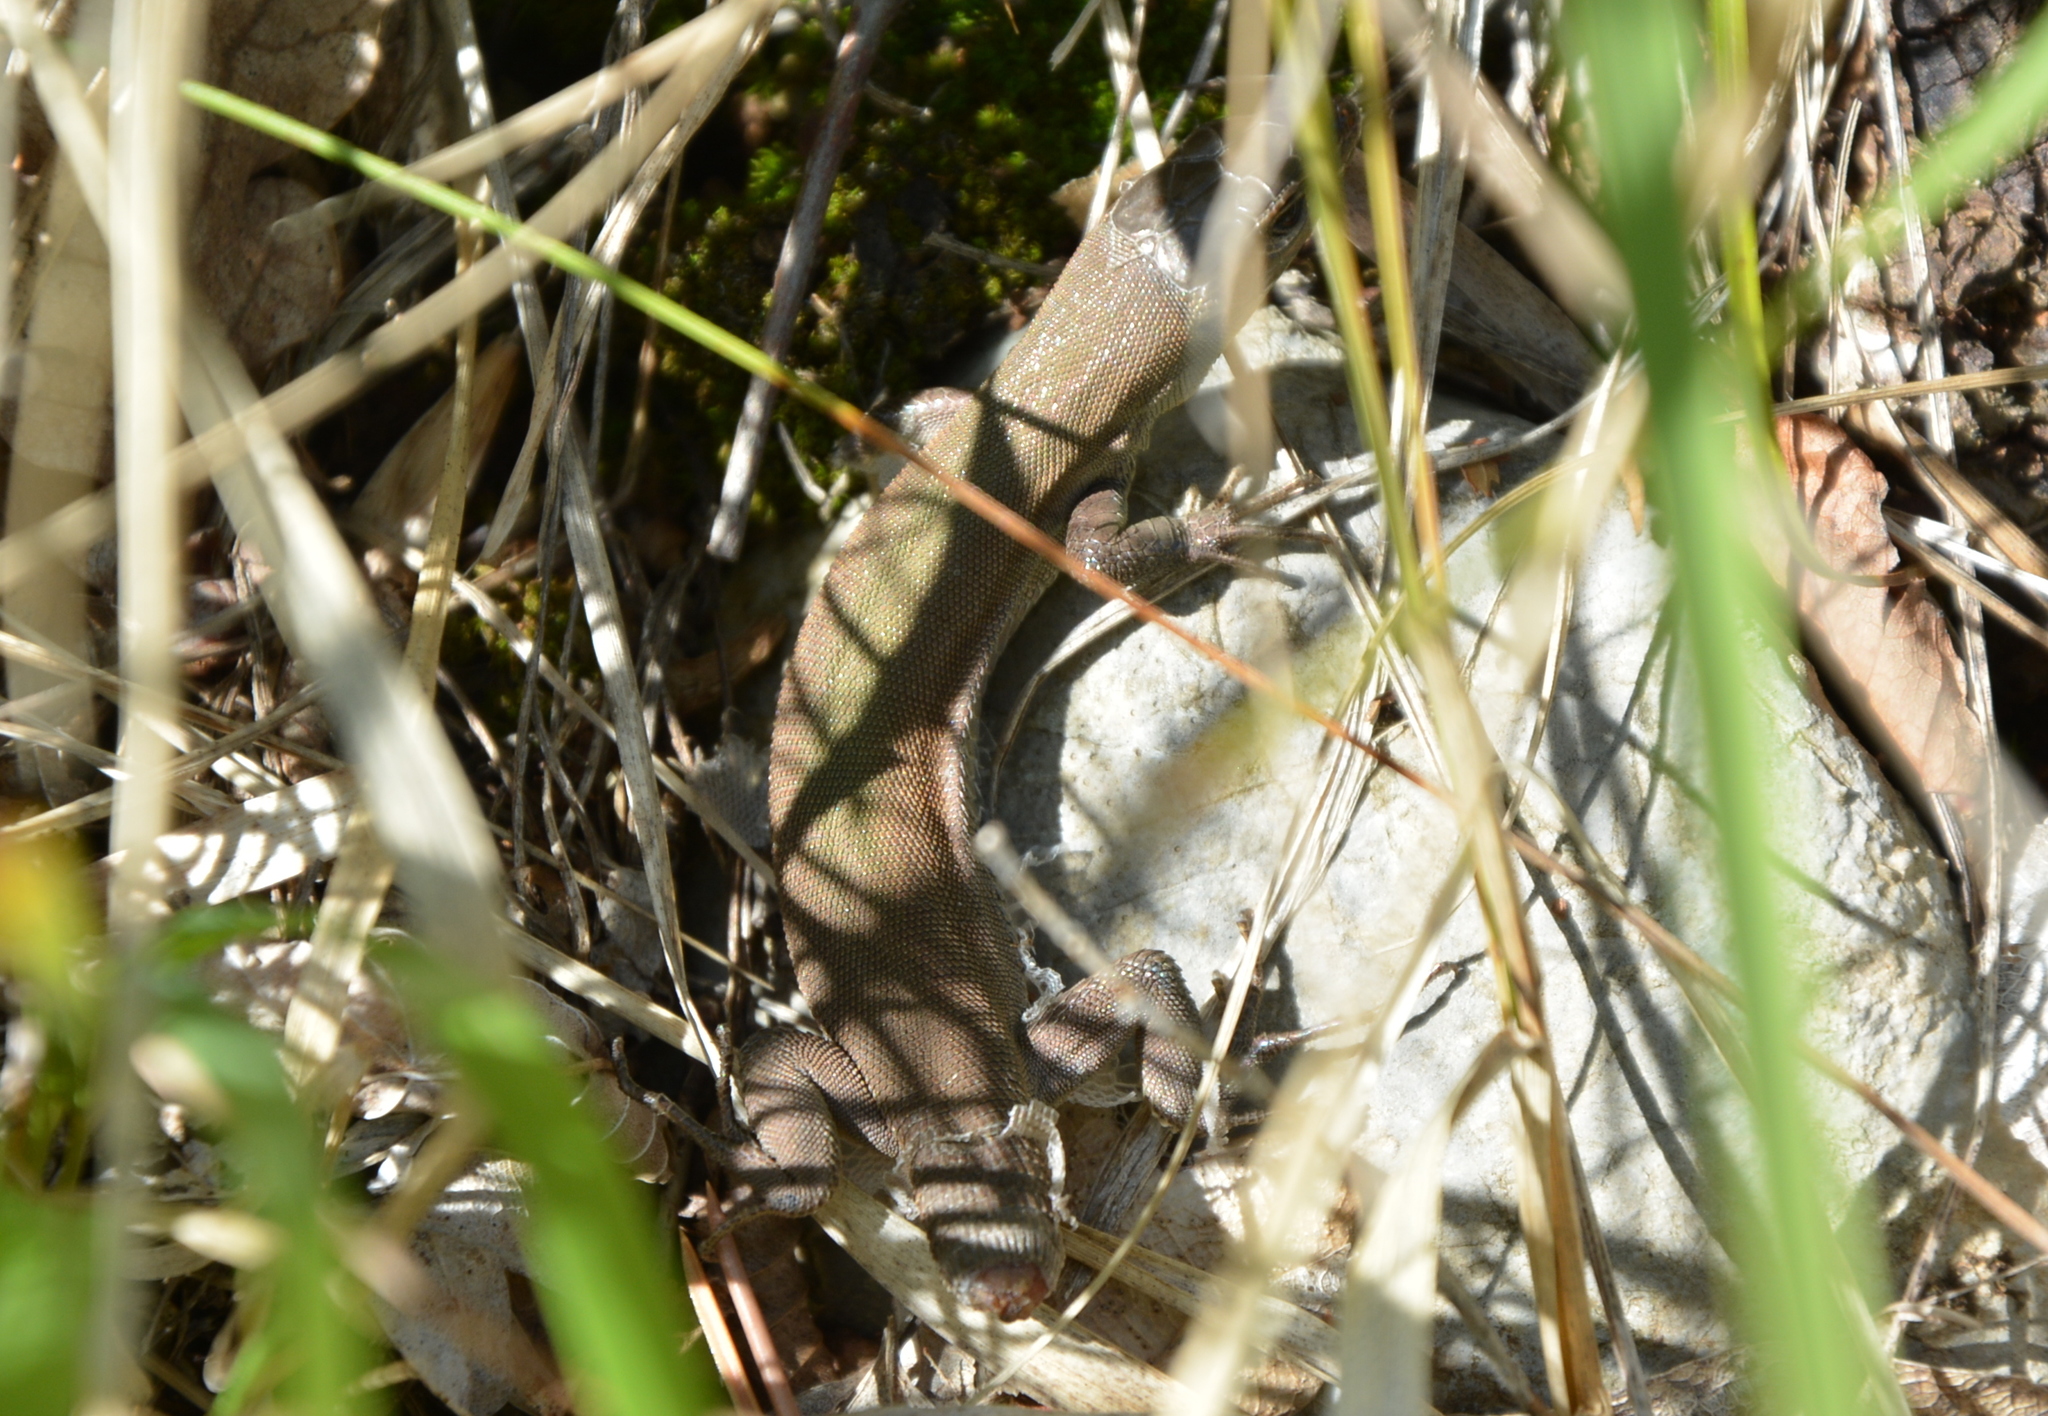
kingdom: Animalia
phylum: Chordata
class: Squamata
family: Lacertidae
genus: Podarcis
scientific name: Podarcis melisellensis
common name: Dalmatian wall lizard
